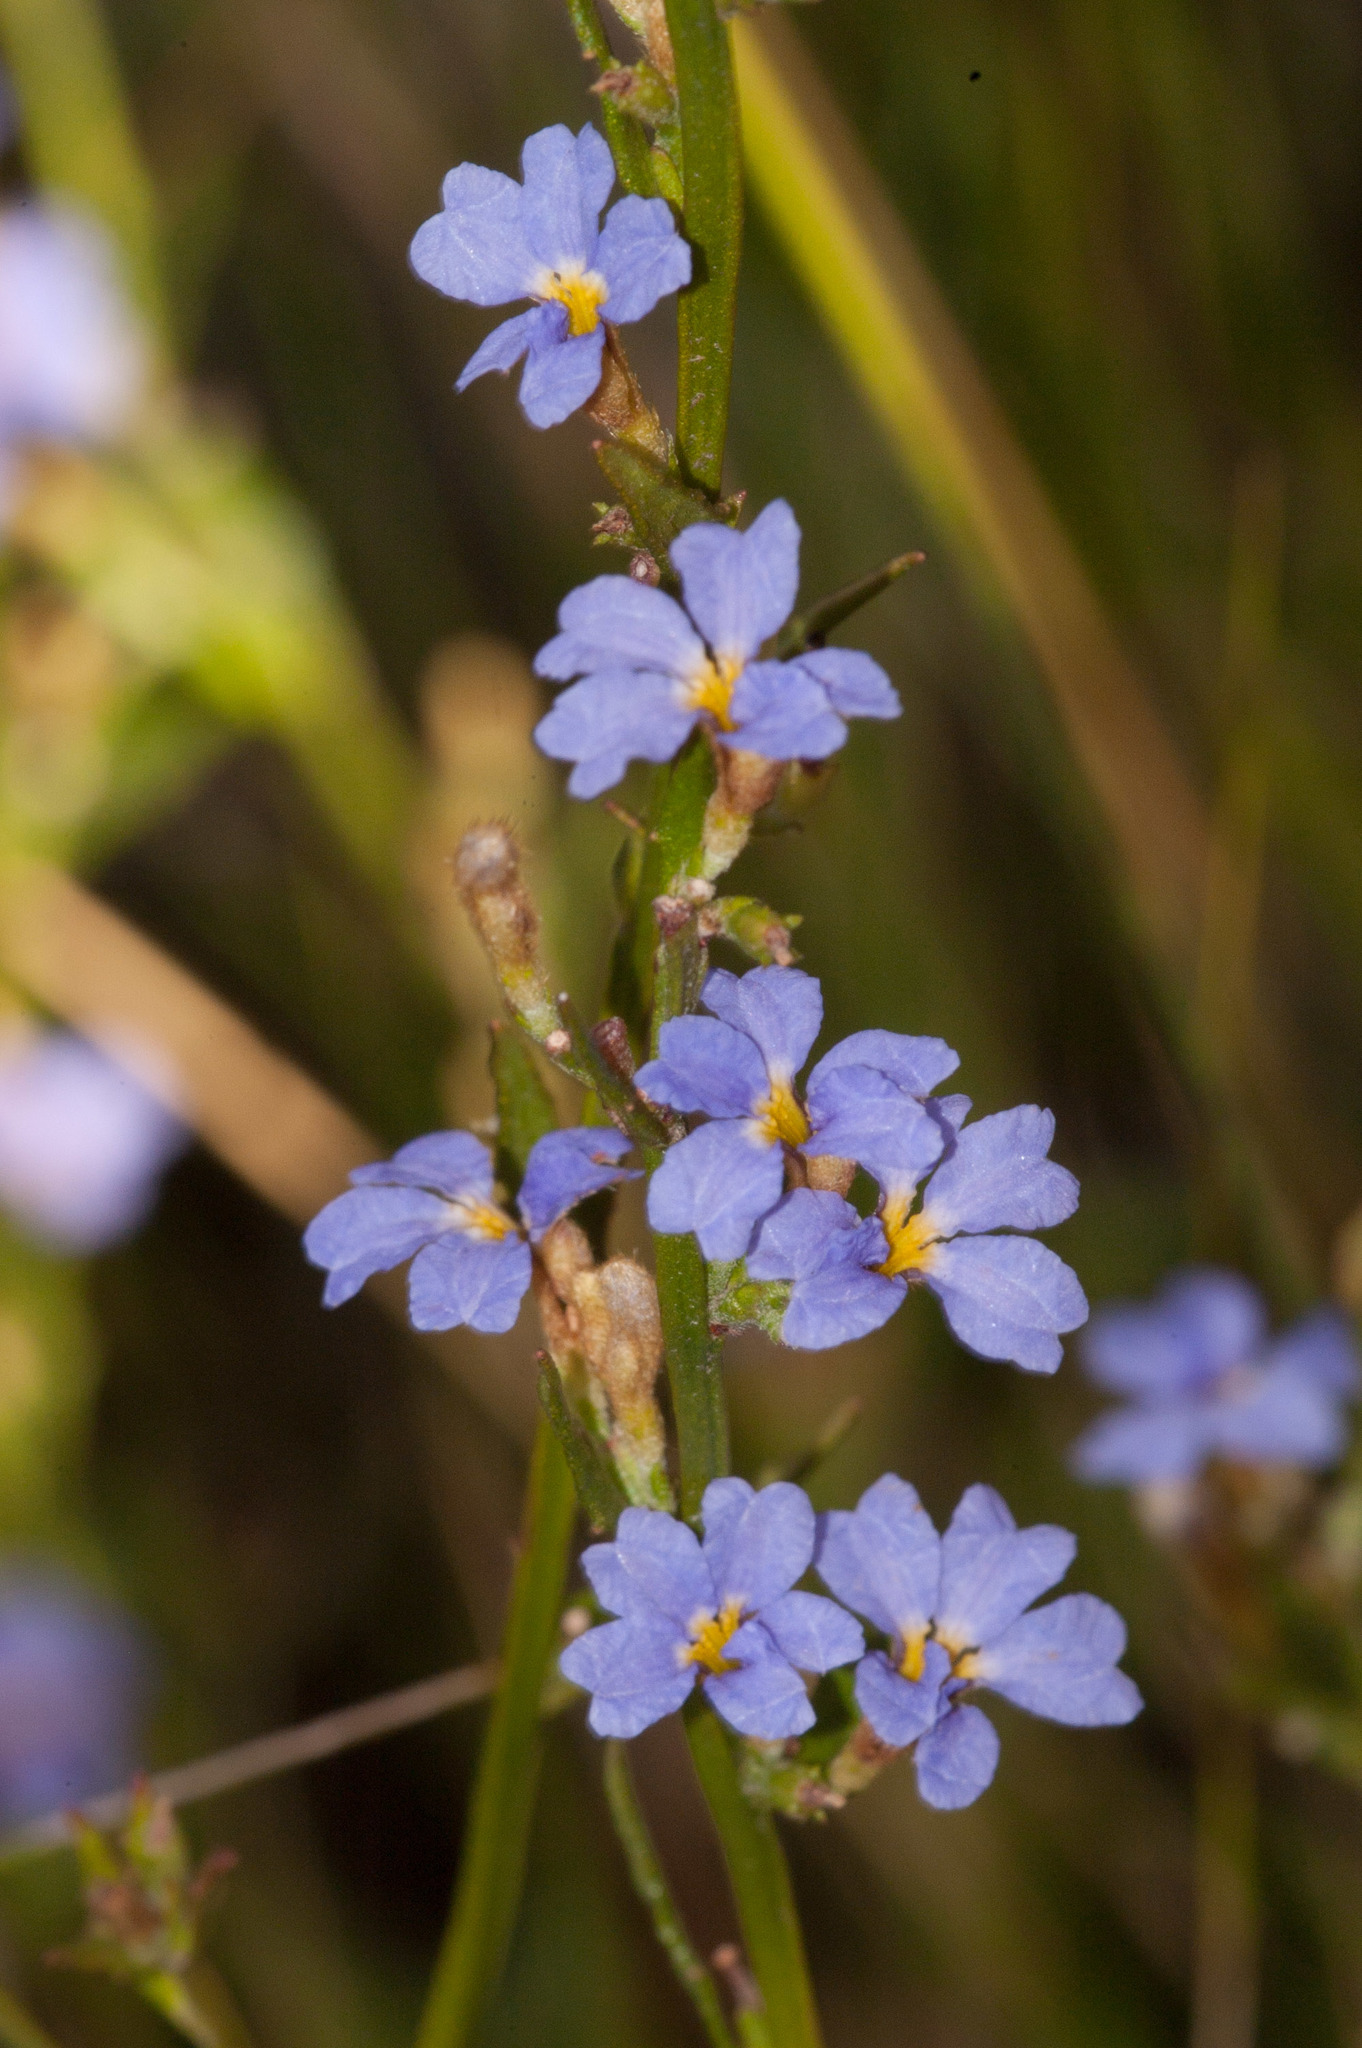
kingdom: Plantae
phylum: Tracheophyta
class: Magnoliopsida
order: Asterales
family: Goodeniaceae
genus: Dampiera
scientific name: Dampiera stricta
